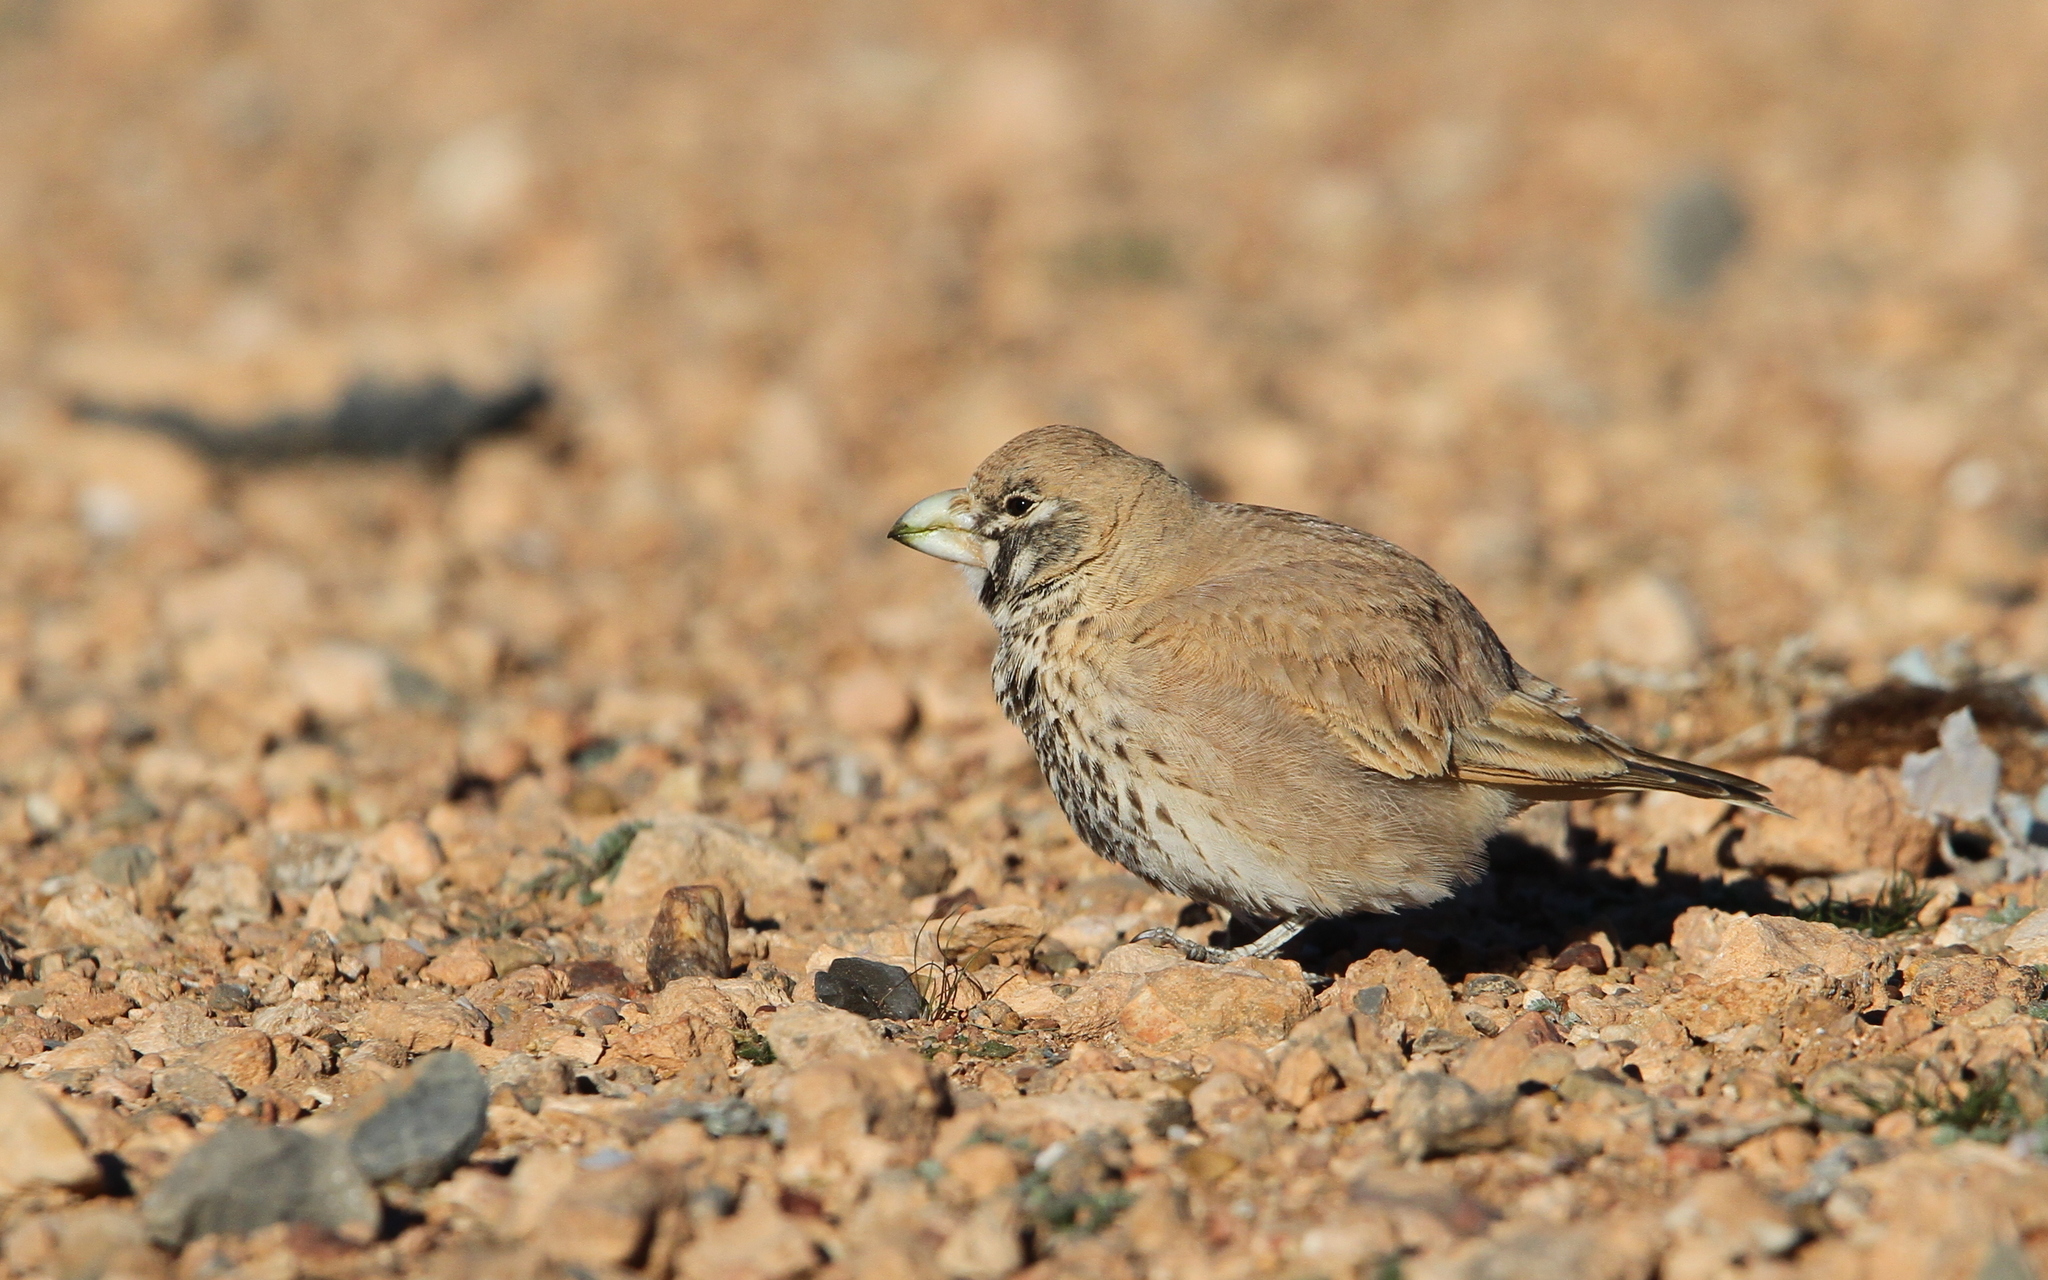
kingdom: Animalia
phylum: Chordata
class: Aves
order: Passeriformes
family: Alaudidae
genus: Ramphocoris
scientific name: Ramphocoris clotbey
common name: Thick-billed lark
